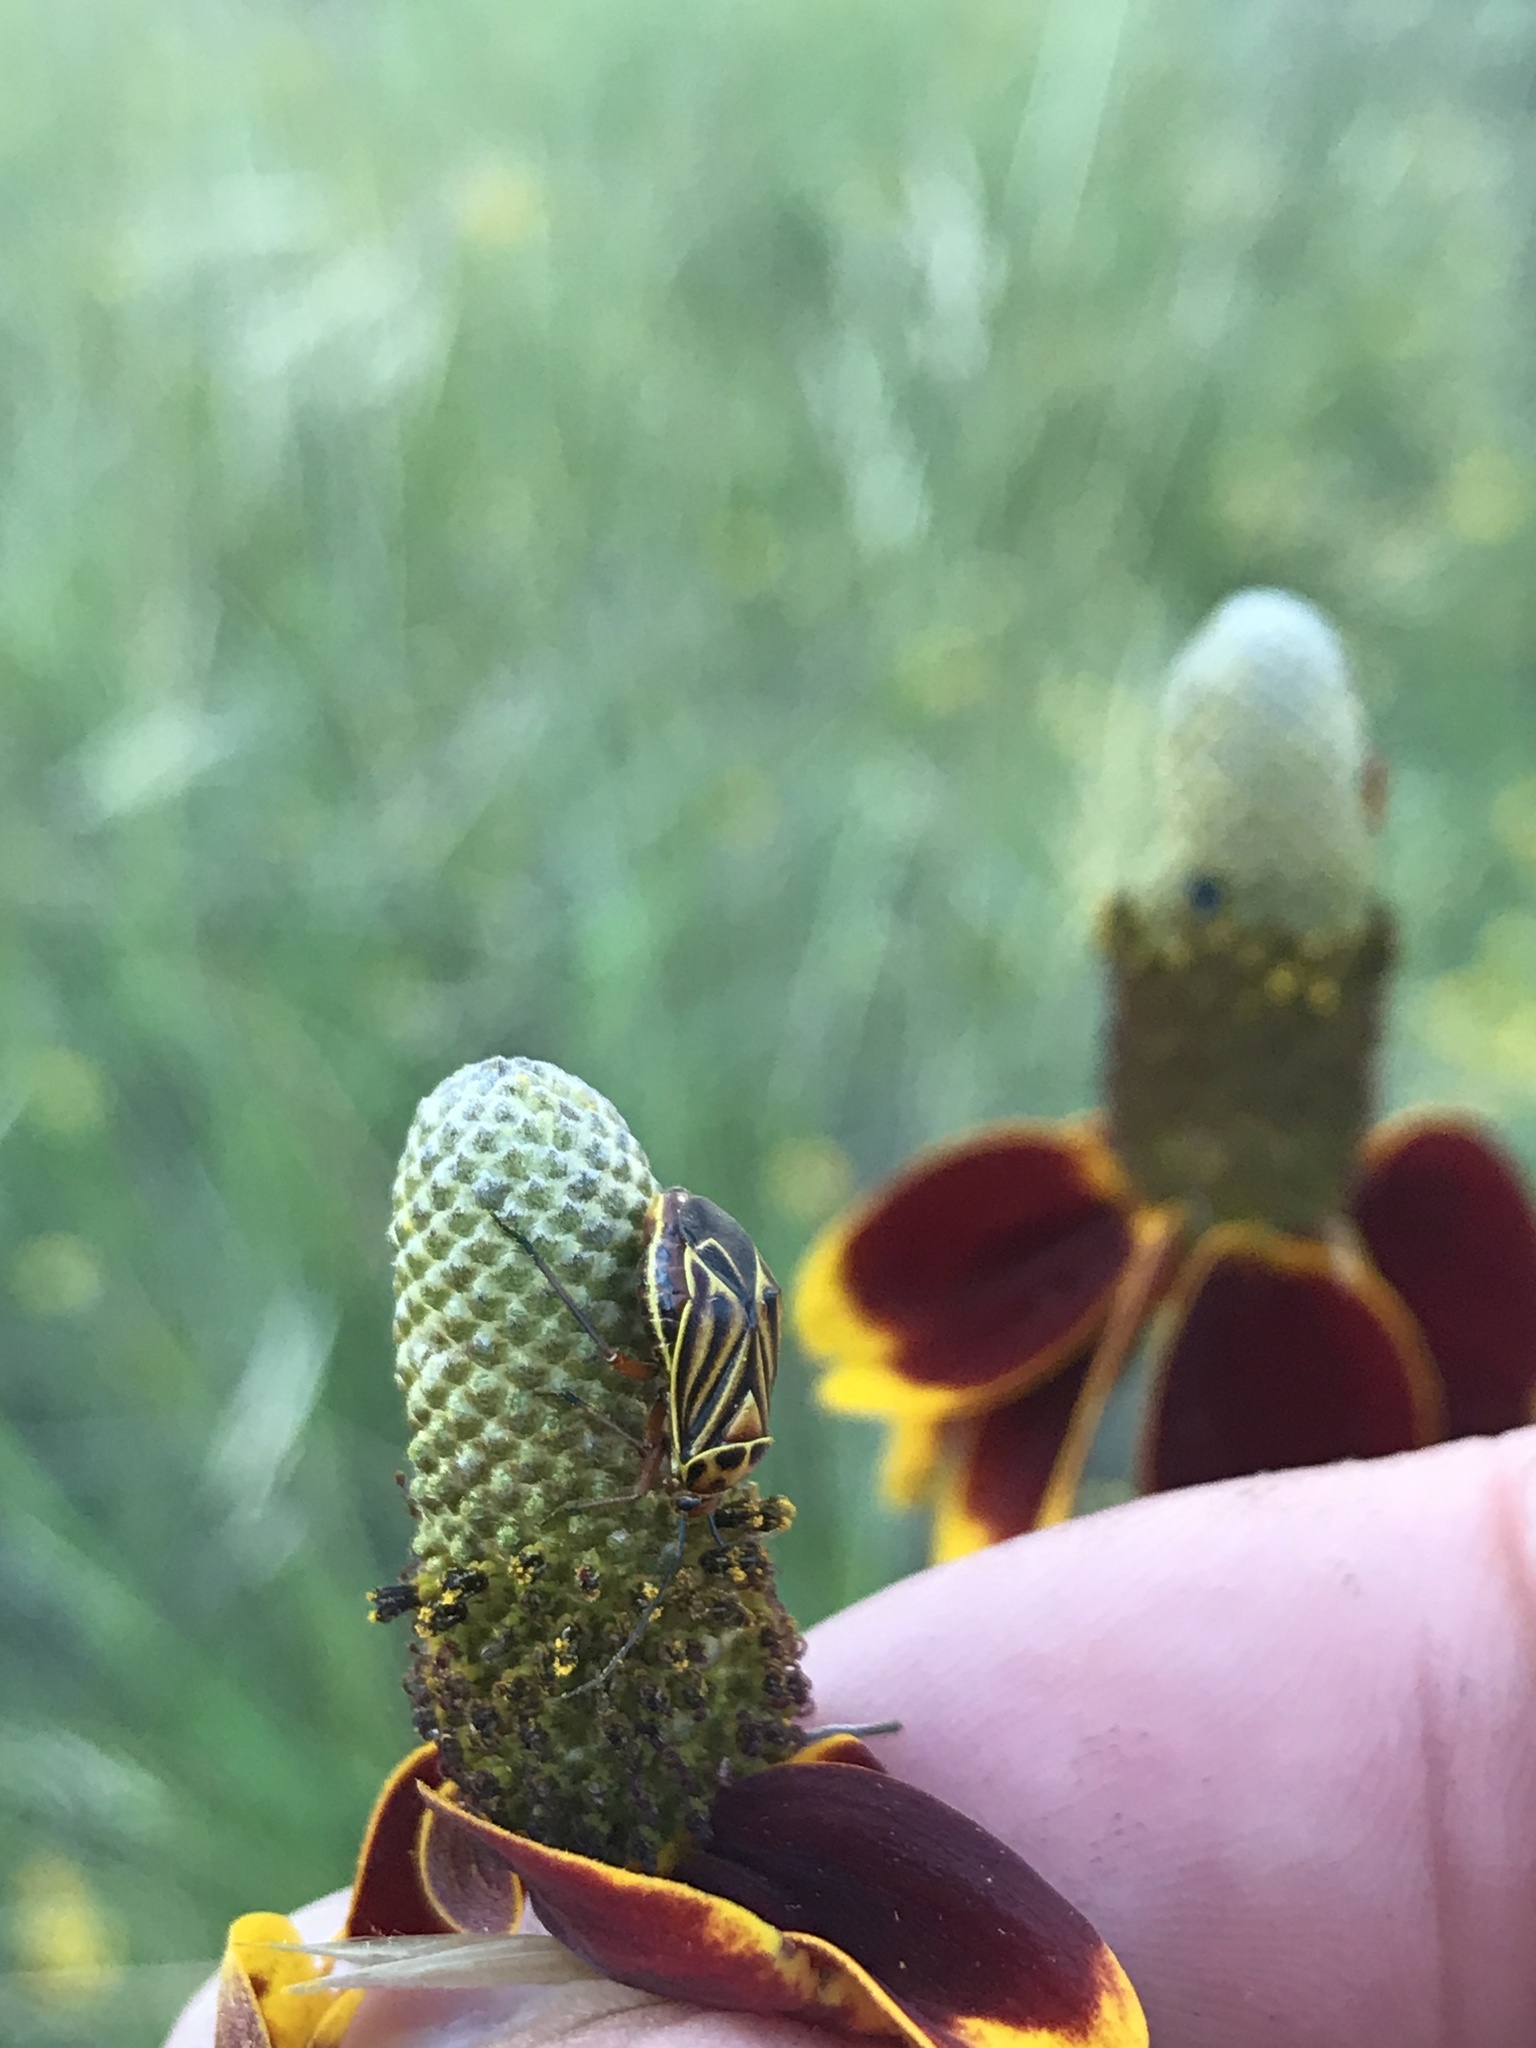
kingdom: Animalia
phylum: Arthropoda
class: Insecta
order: Hemiptera
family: Miridae
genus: Calocoris
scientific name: Calocoris barberi
